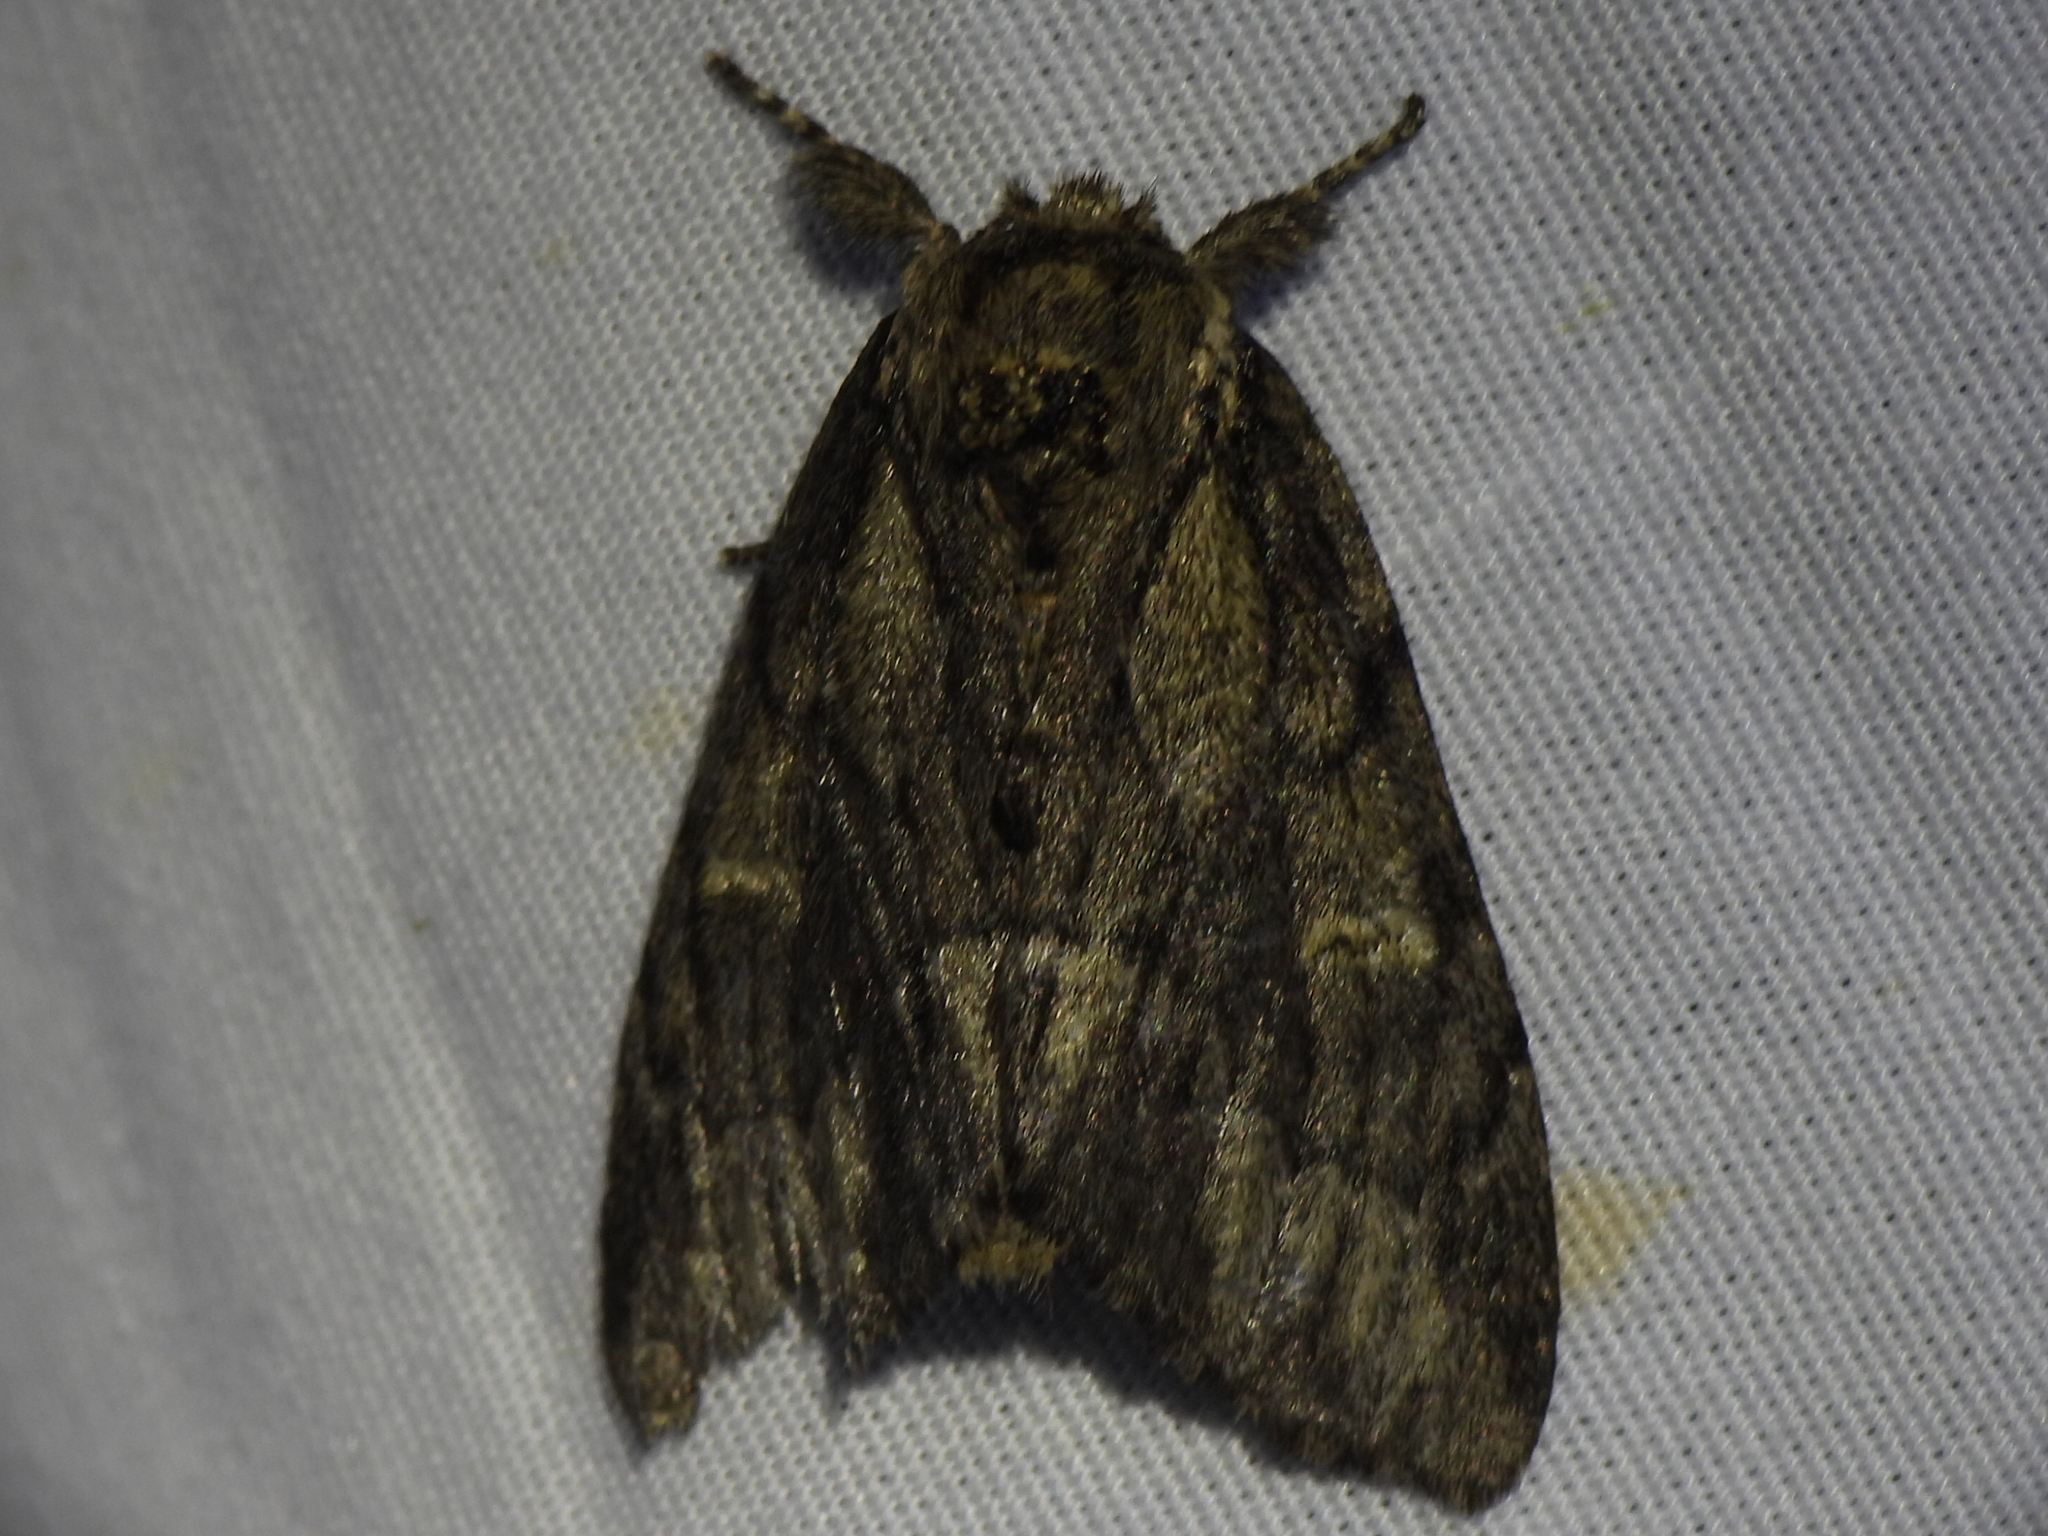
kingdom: Animalia
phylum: Arthropoda
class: Insecta
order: Lepidoptera
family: Notodontidae
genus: Paraeschra
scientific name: Paraeschra georgica
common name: Georgian prominent
